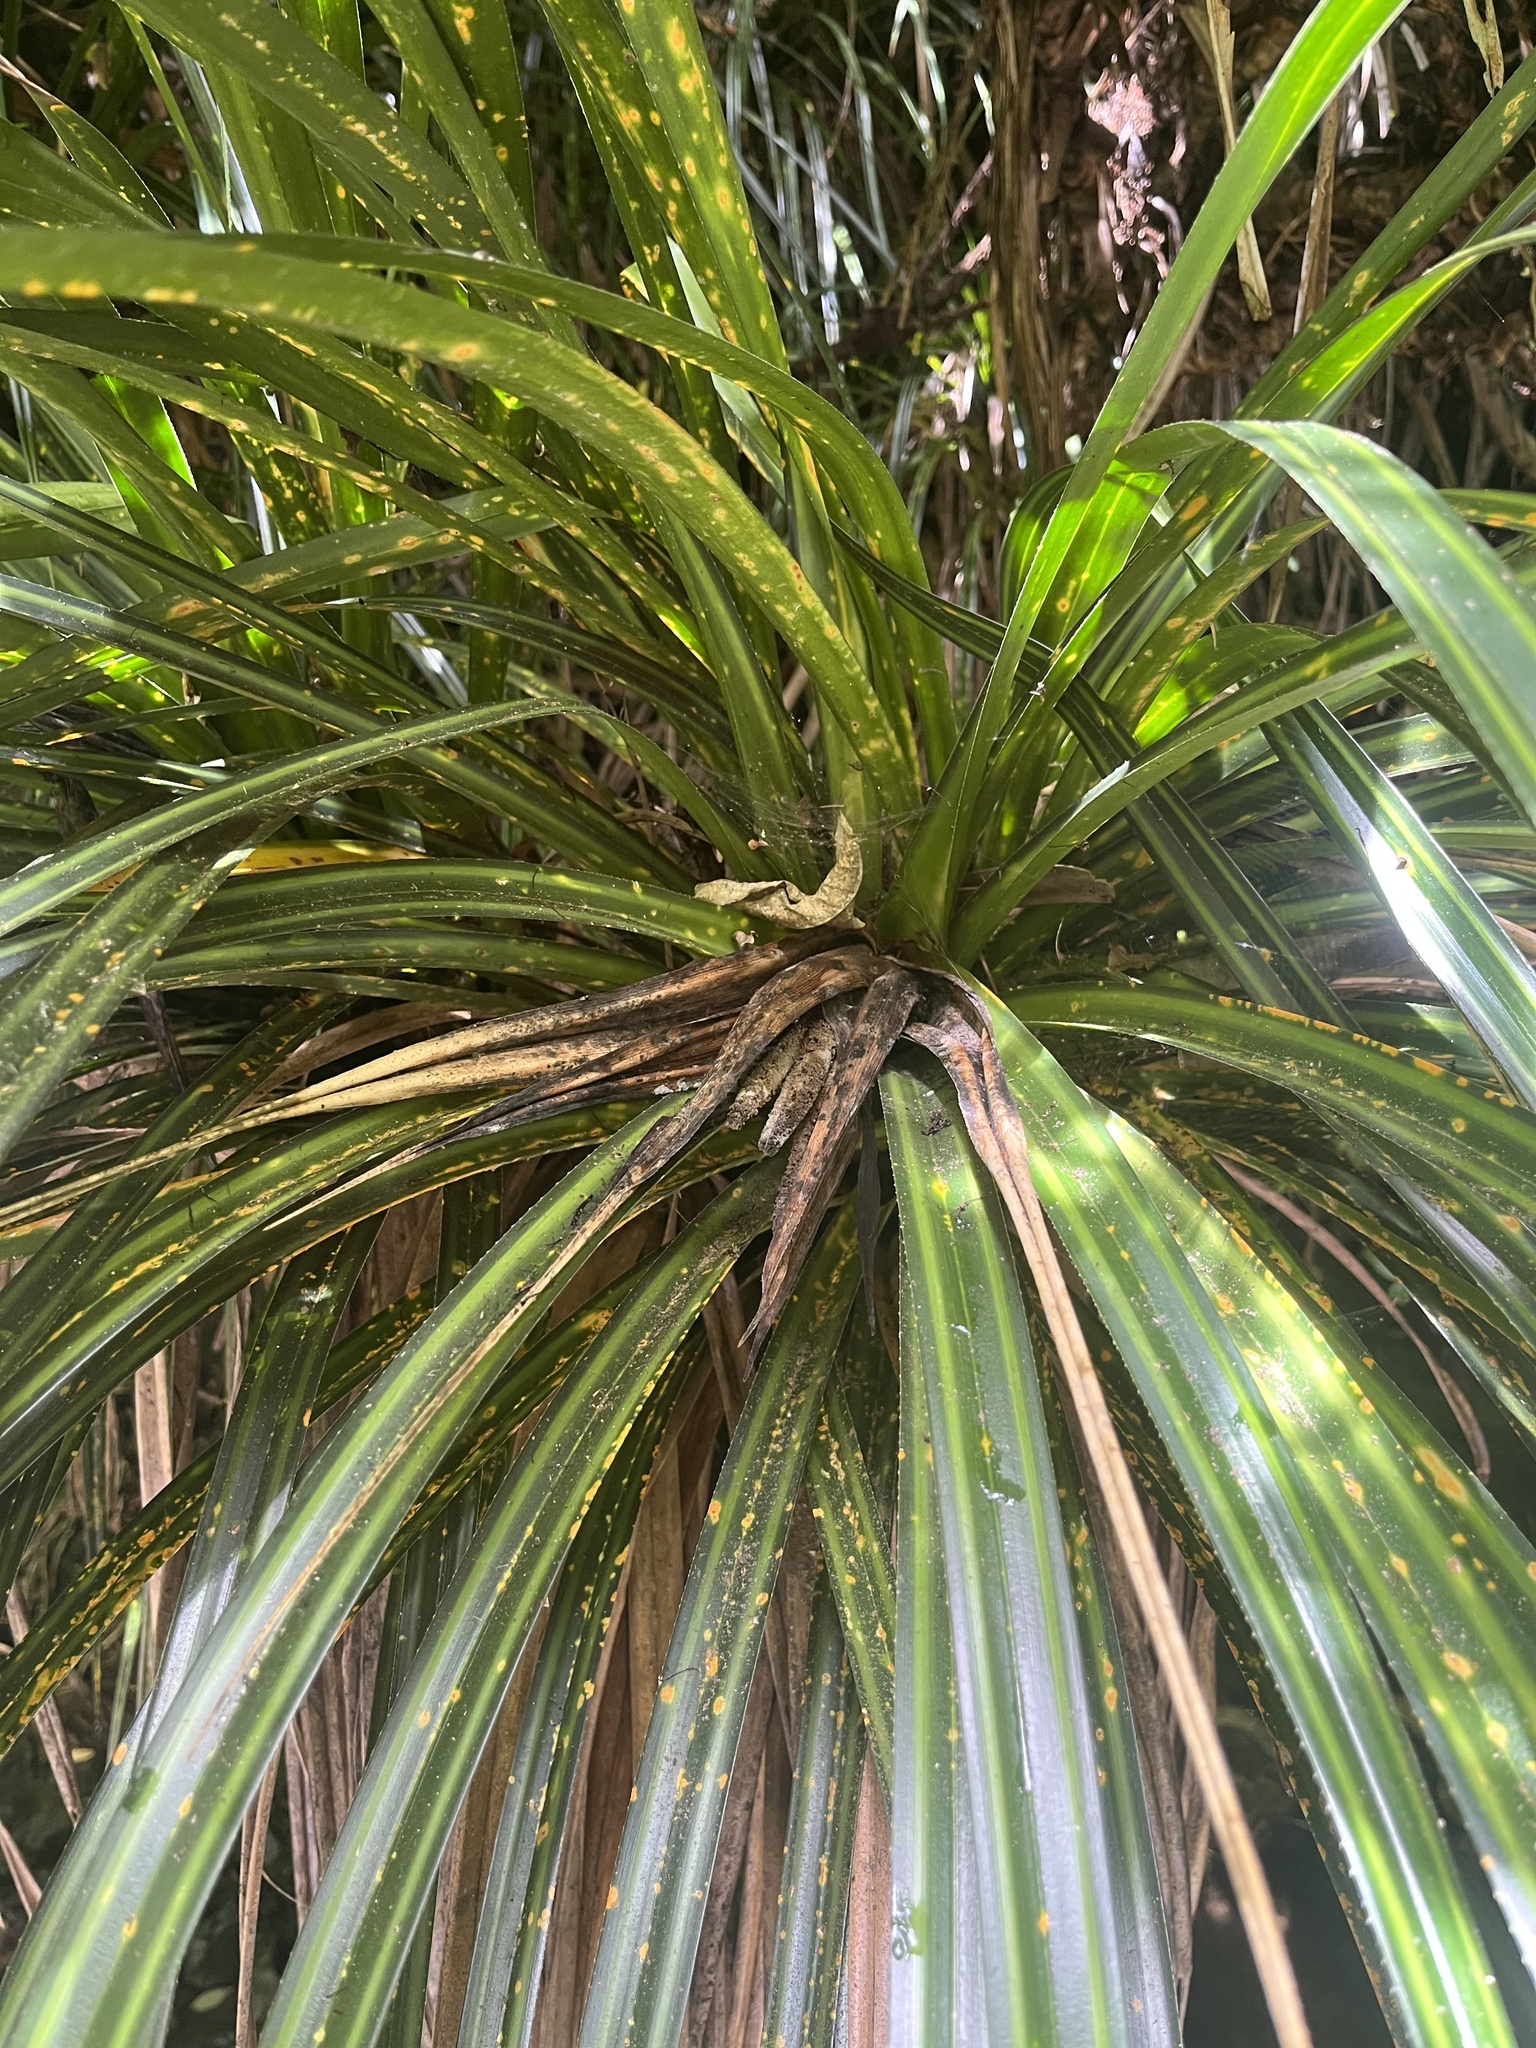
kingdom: Plantae
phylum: Tracheophyta
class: Liliopsida
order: Pandanales
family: Pandanaceae
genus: Freycinetia
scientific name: Freycinetia banksii
